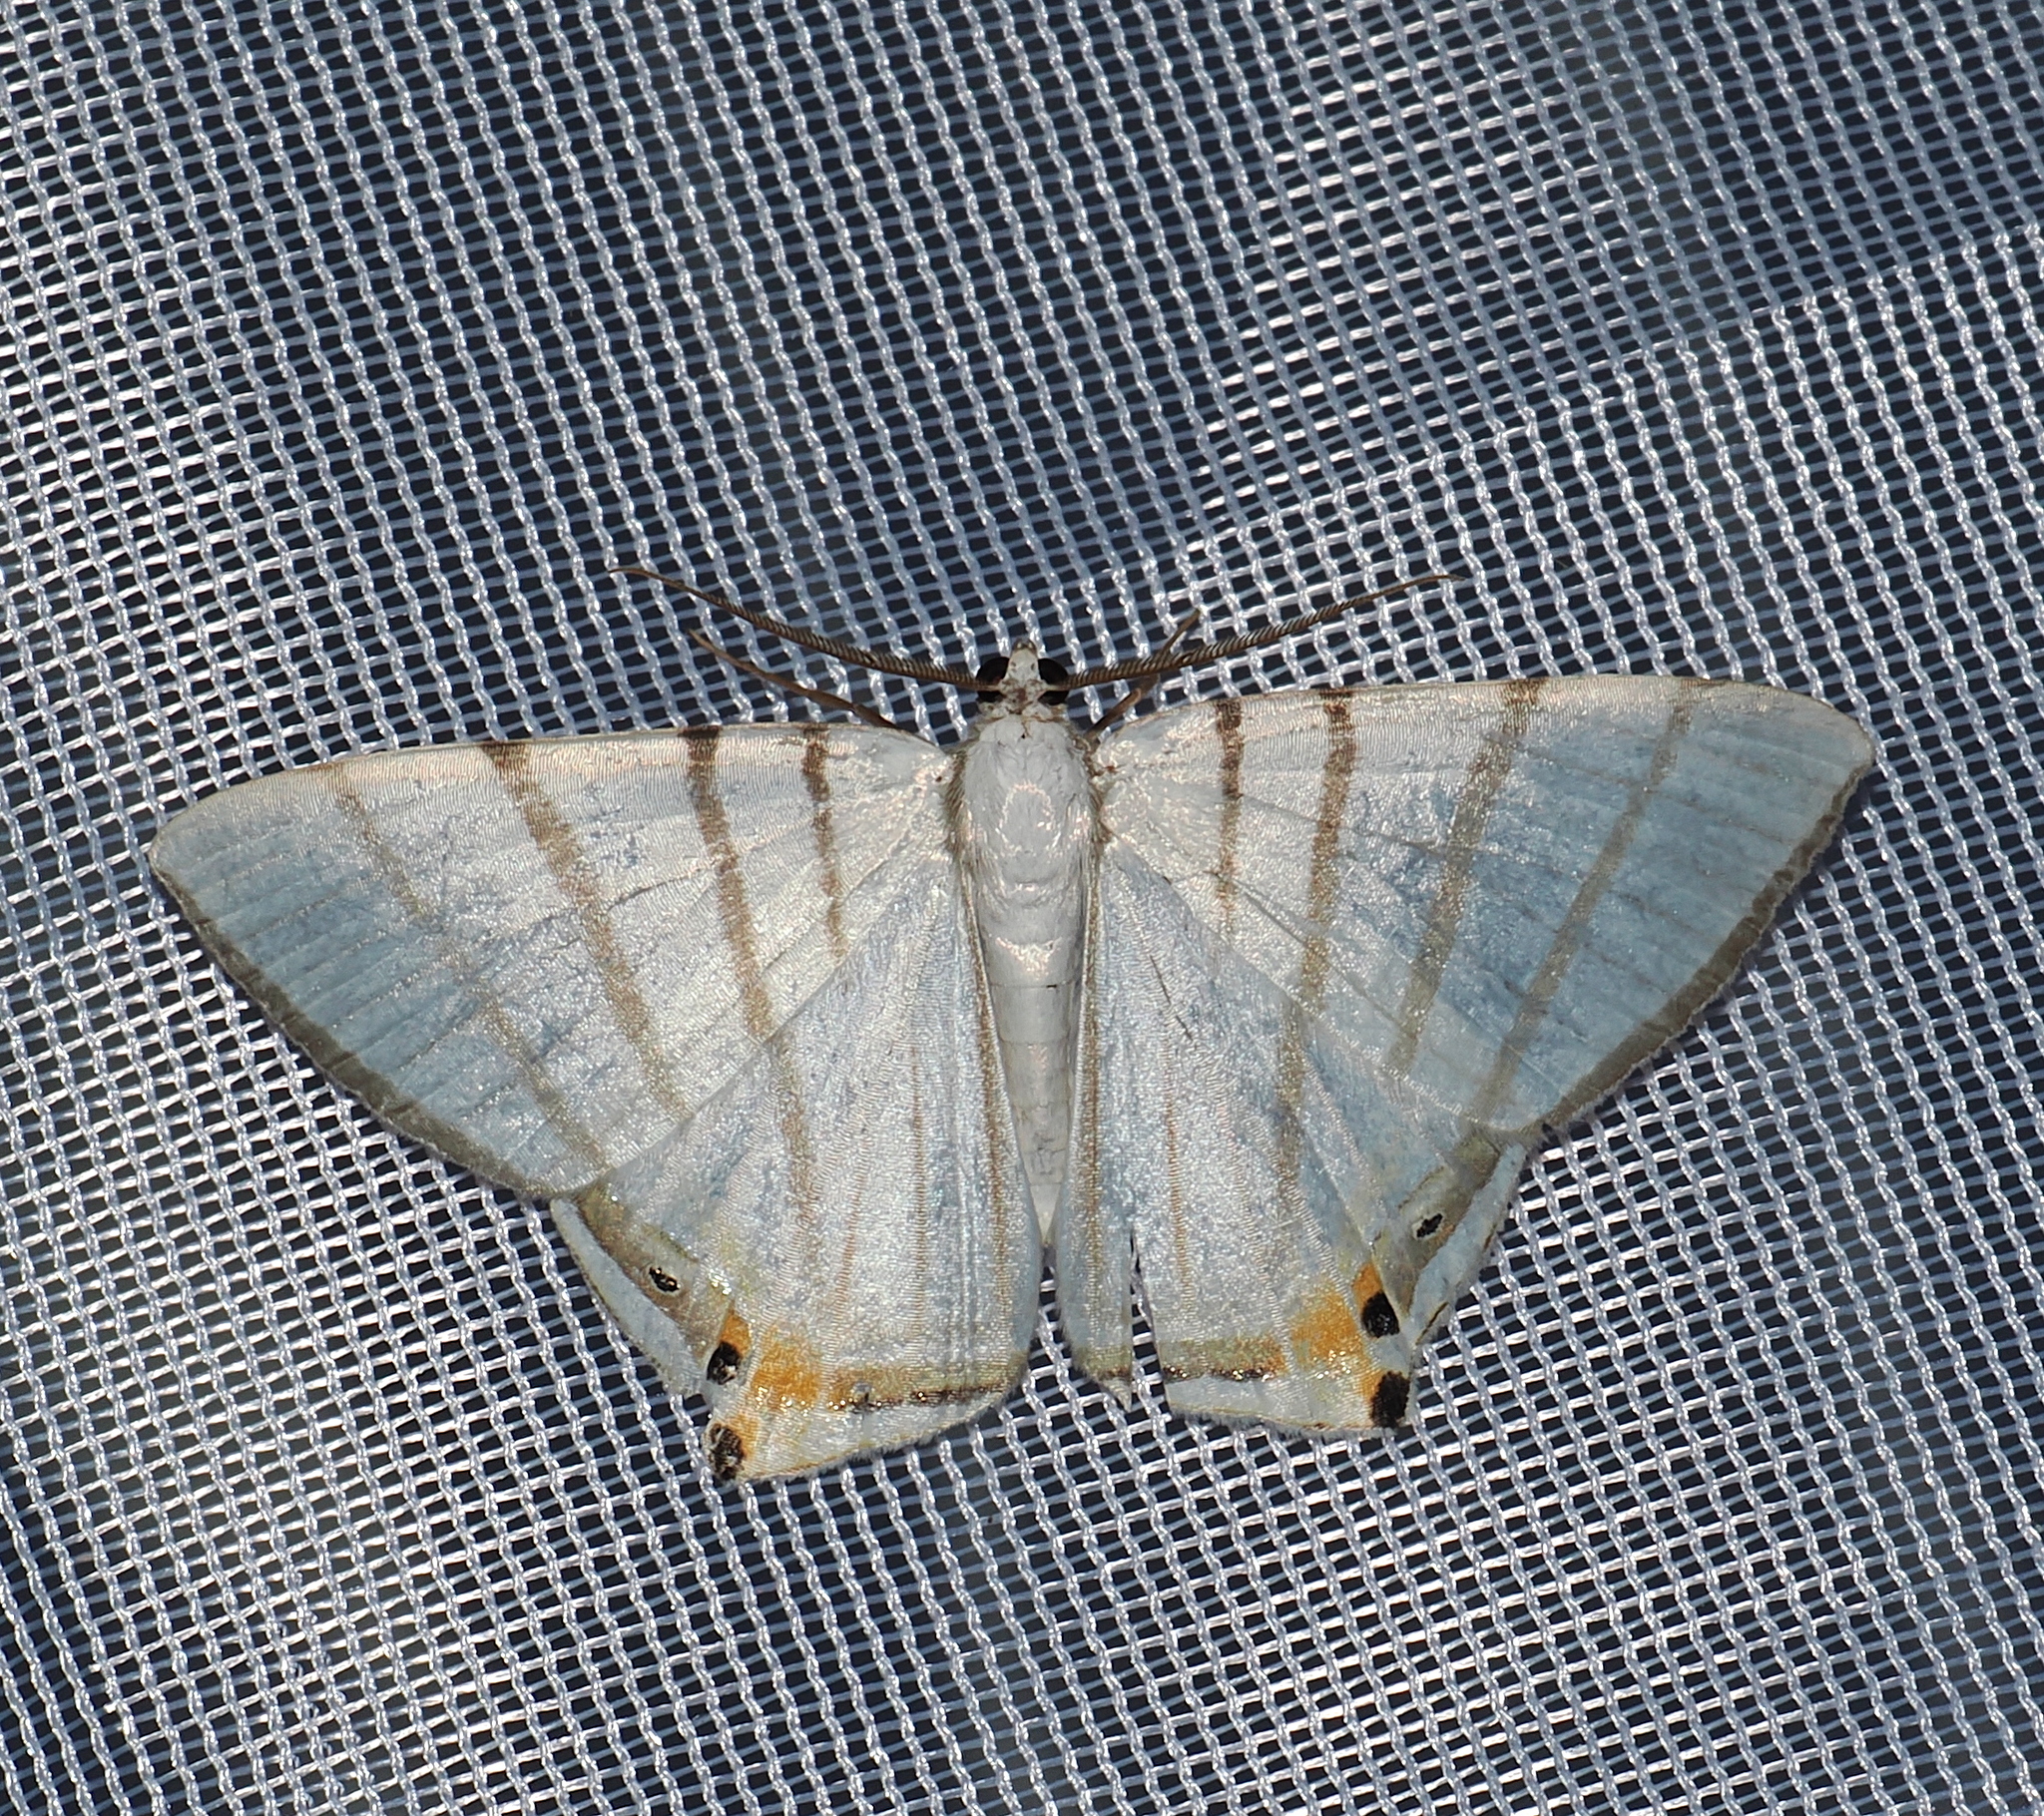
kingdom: Animalia
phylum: Arthropoda
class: Insecta
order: Lepidoptera
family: Geometridae
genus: Opisthoxia
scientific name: Opisthoxia metargyria
